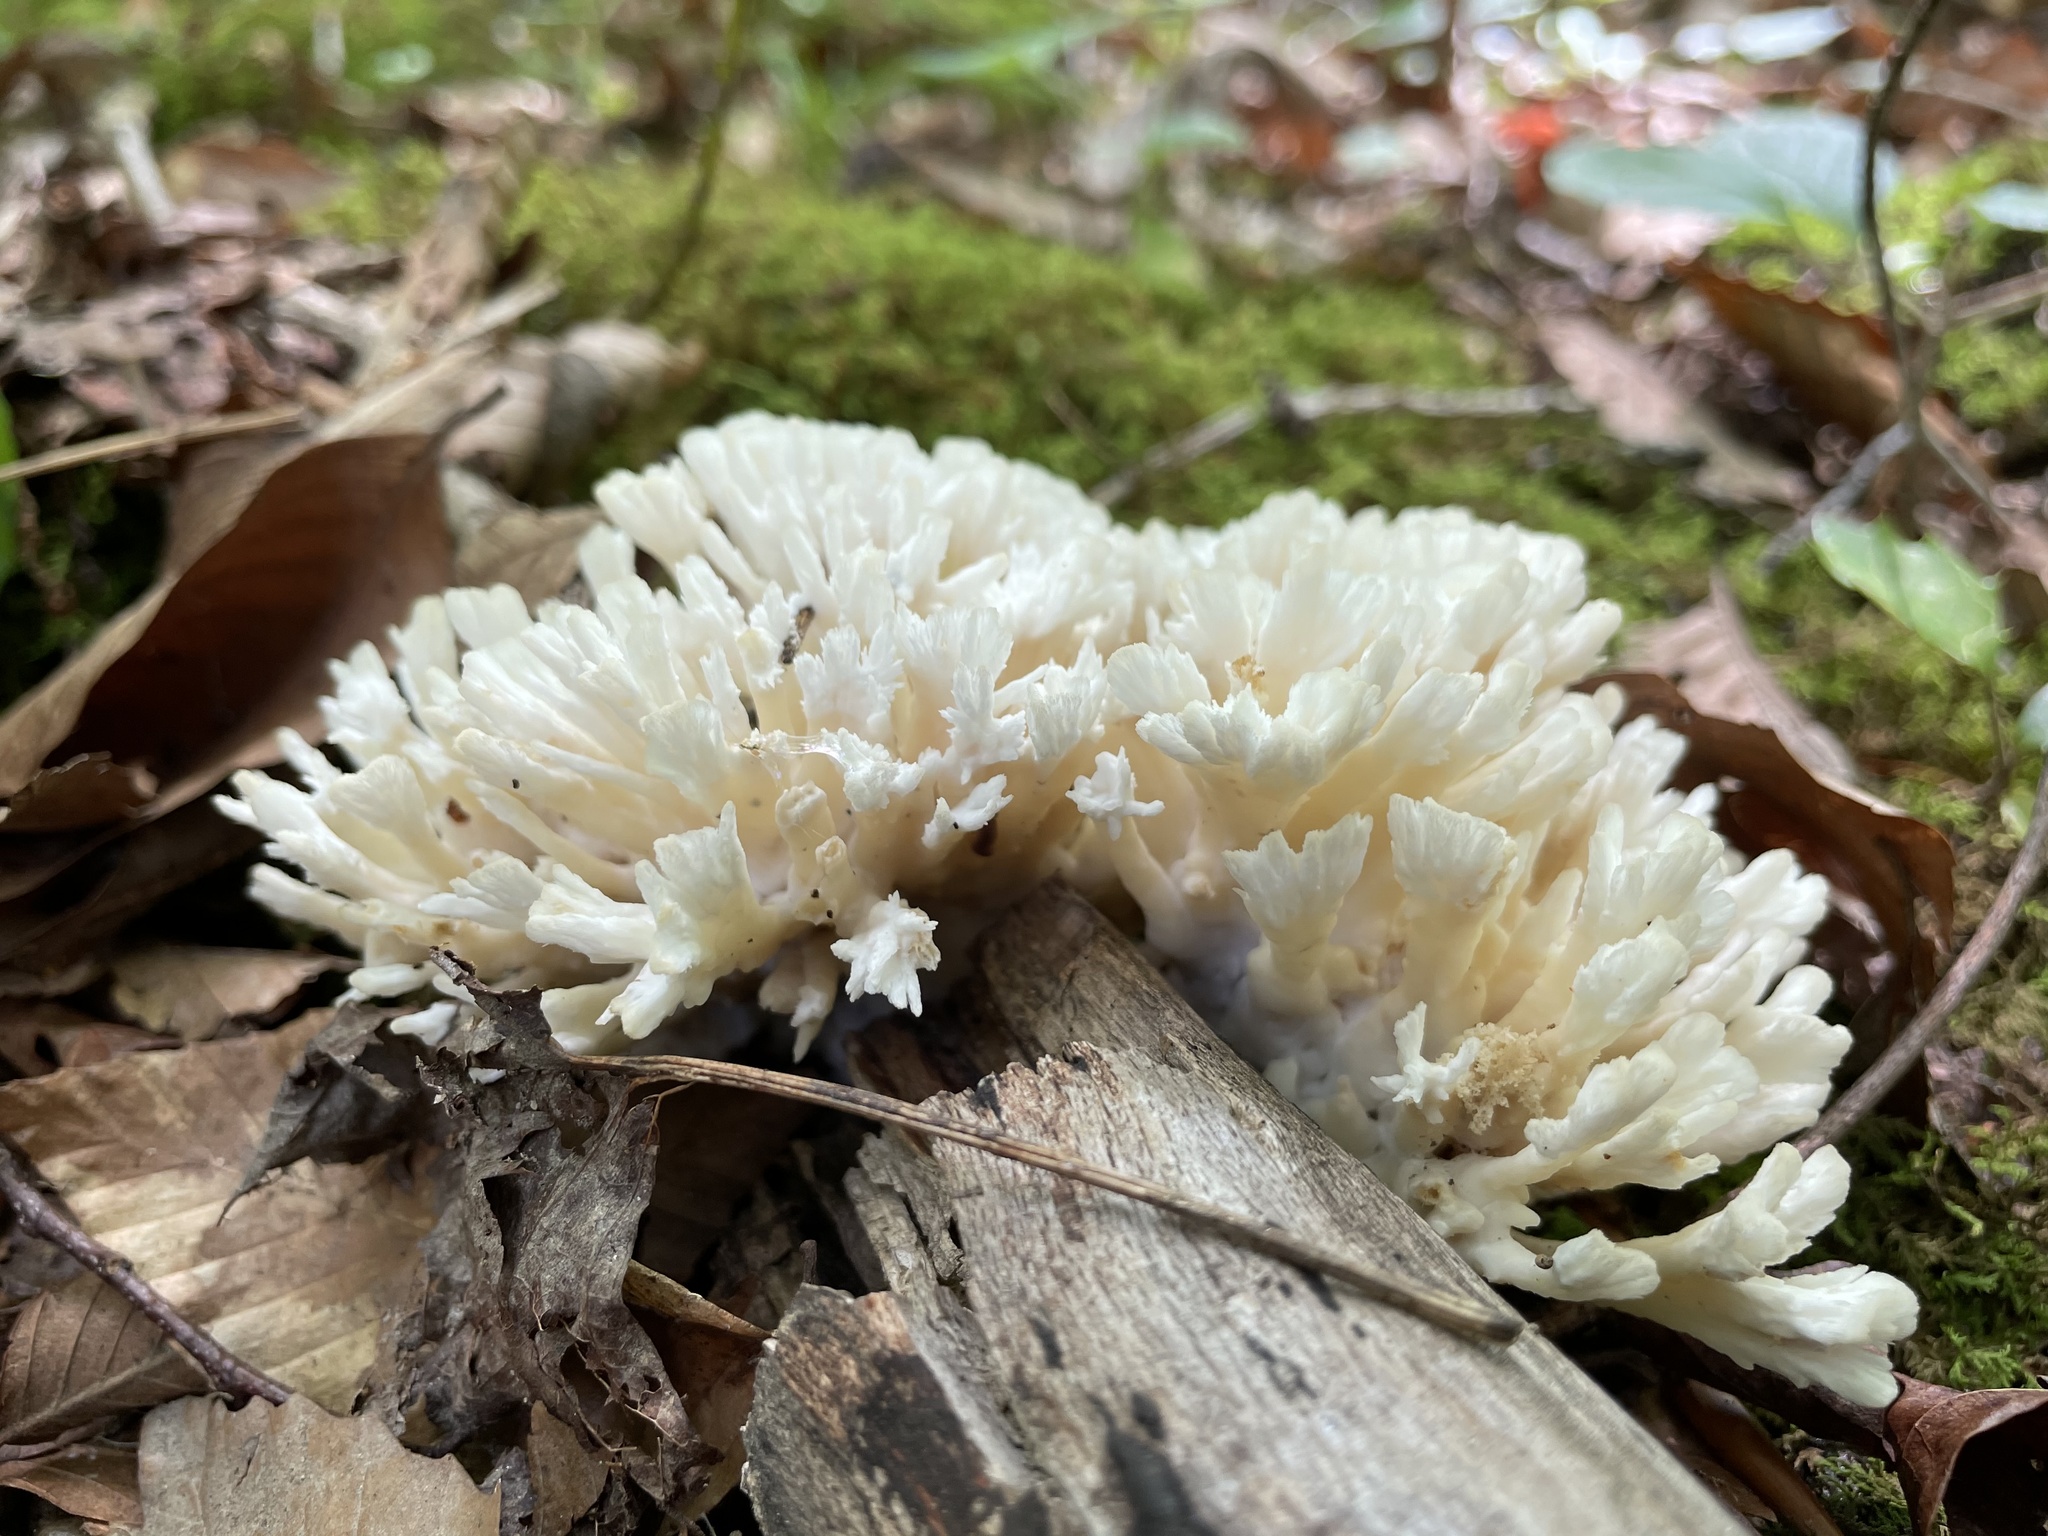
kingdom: Fungi
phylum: Basidiomycota
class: Agaricomycetes
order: Sebacinales
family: Sebacinaceae
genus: Sebacina
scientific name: Sebacina schweinitzii
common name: Jellied false coral fungus
